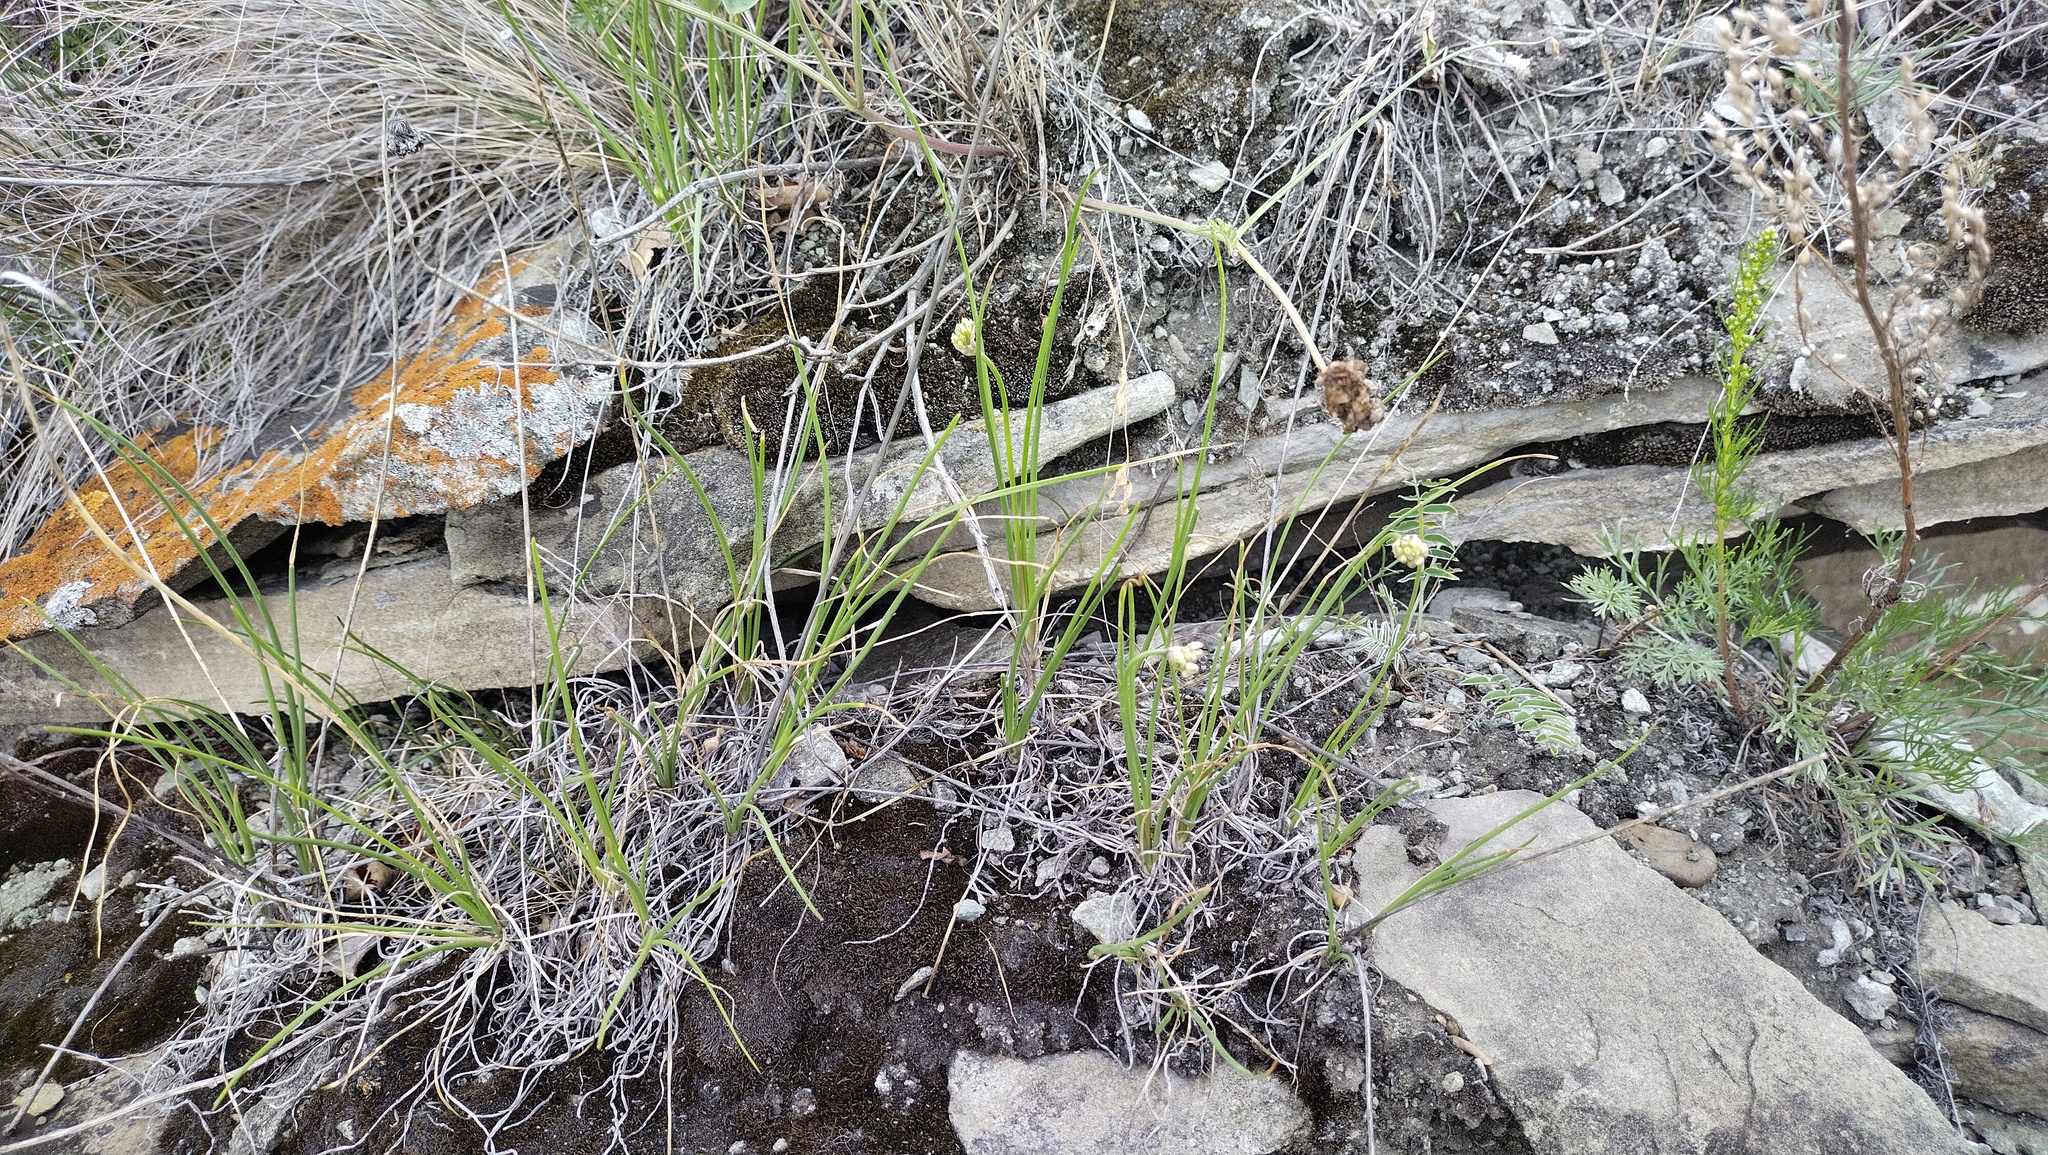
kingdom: Plantae
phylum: Tracheophyta
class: Liliopsida
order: Asparagales
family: Amaryllidaceae
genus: Allium
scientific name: Allium stellerianum
